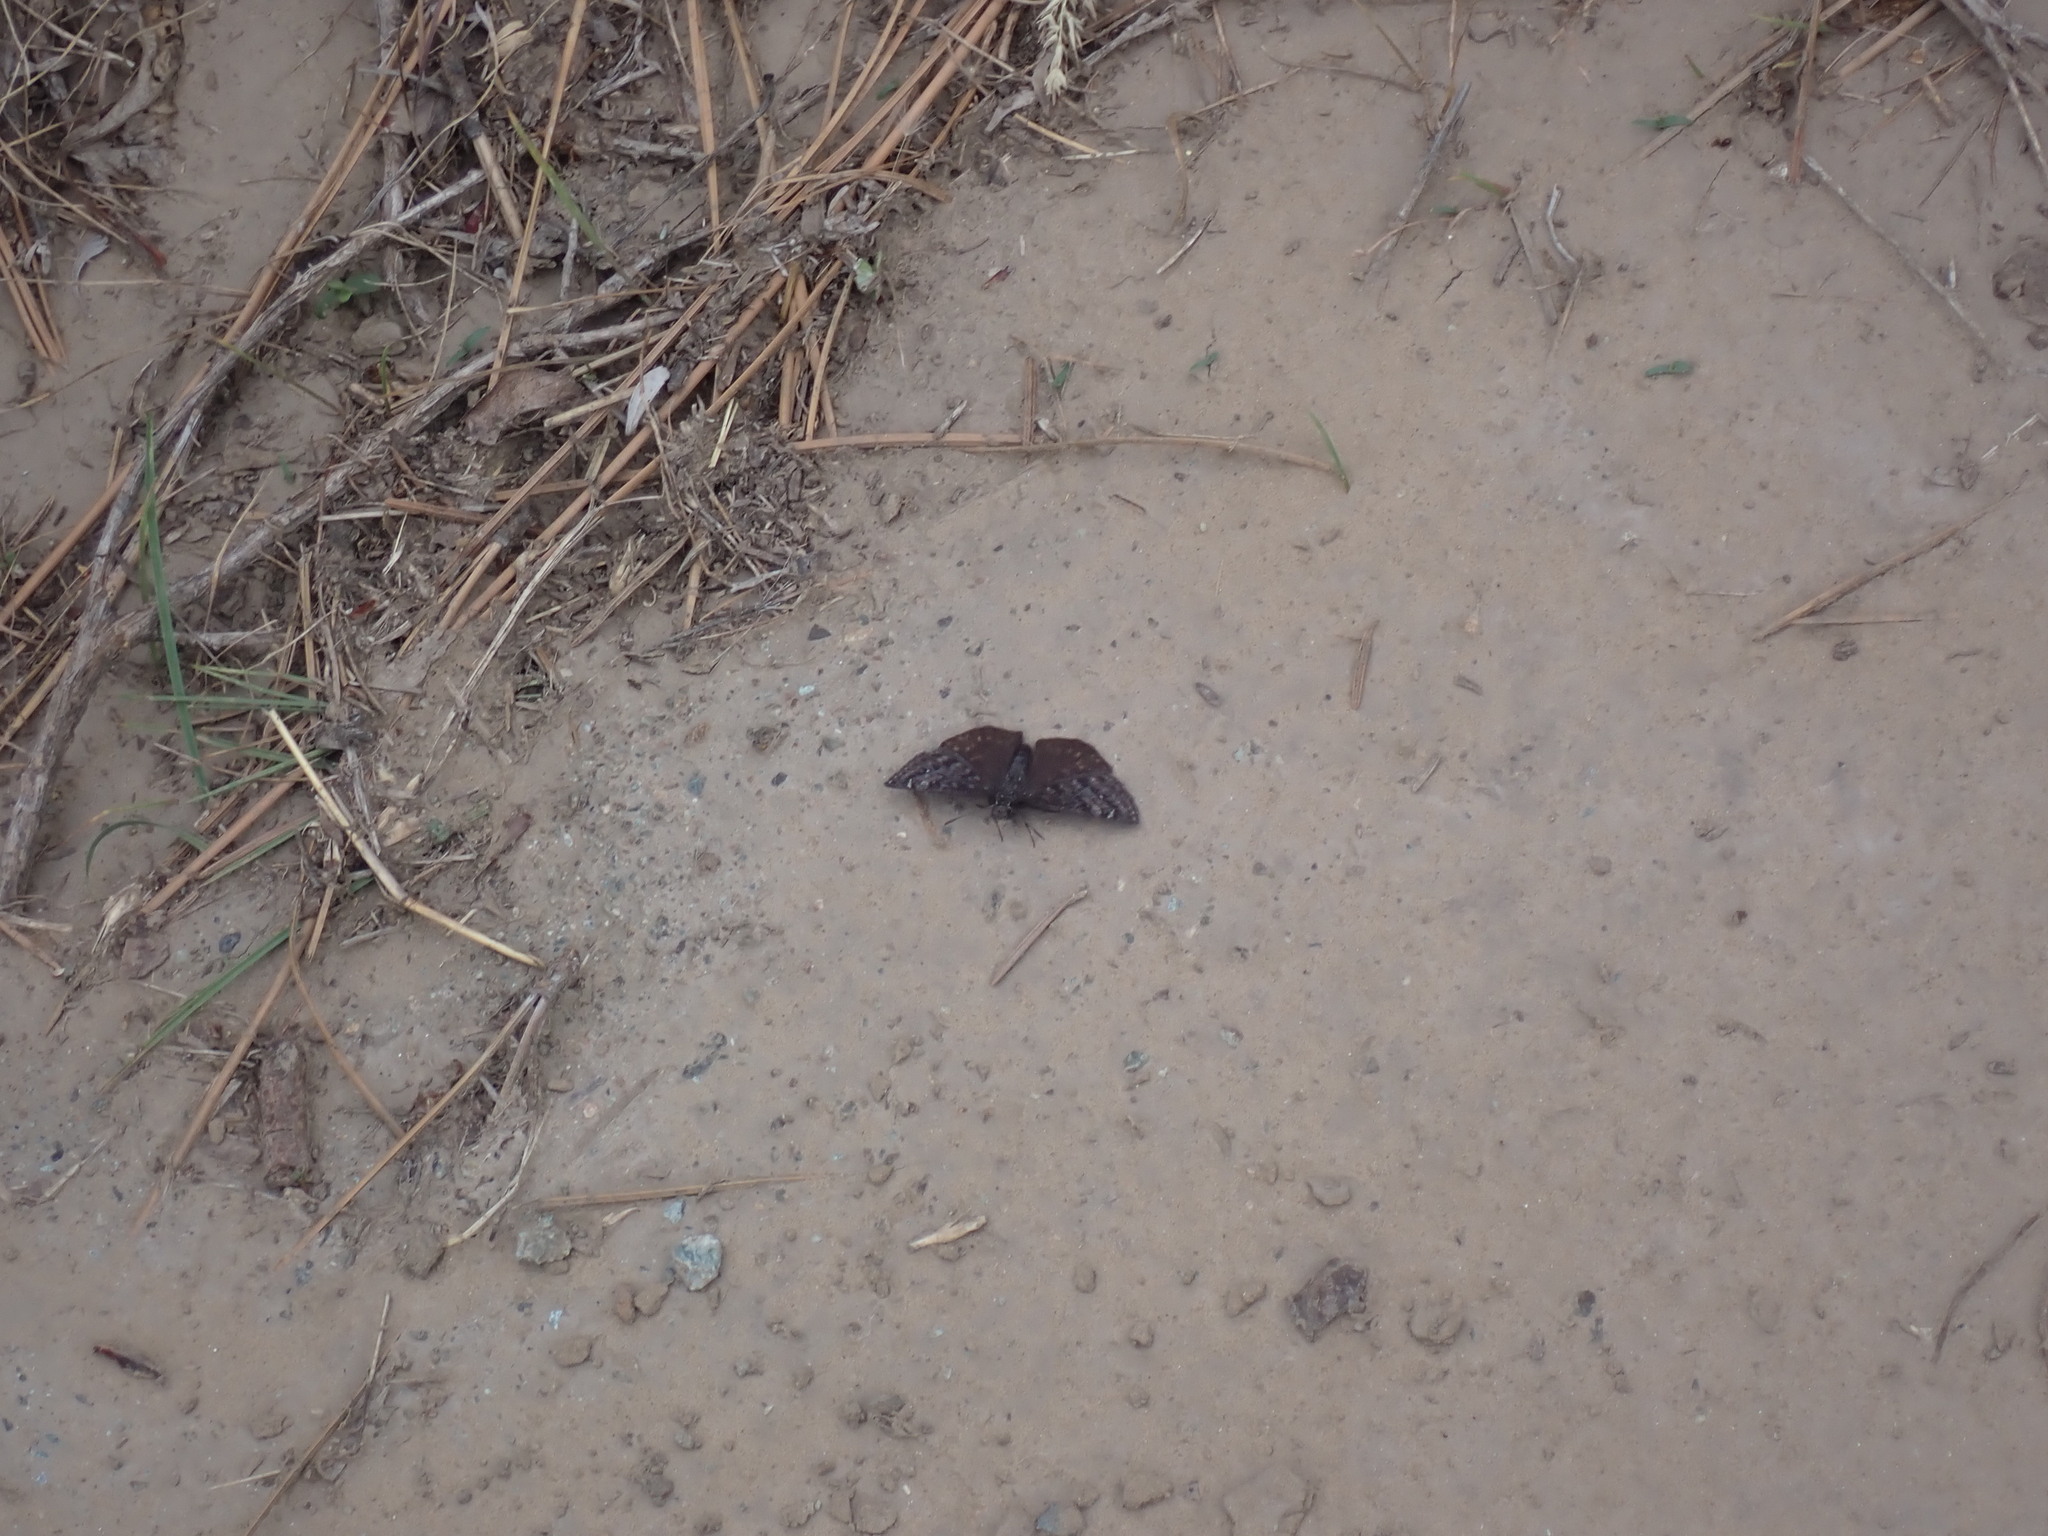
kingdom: Animalia
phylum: Arthropoda
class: Insecta
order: Lepidoptera
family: Hesperiidae
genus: Erynnis
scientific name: Erynnis persius
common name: Persius duskywing
